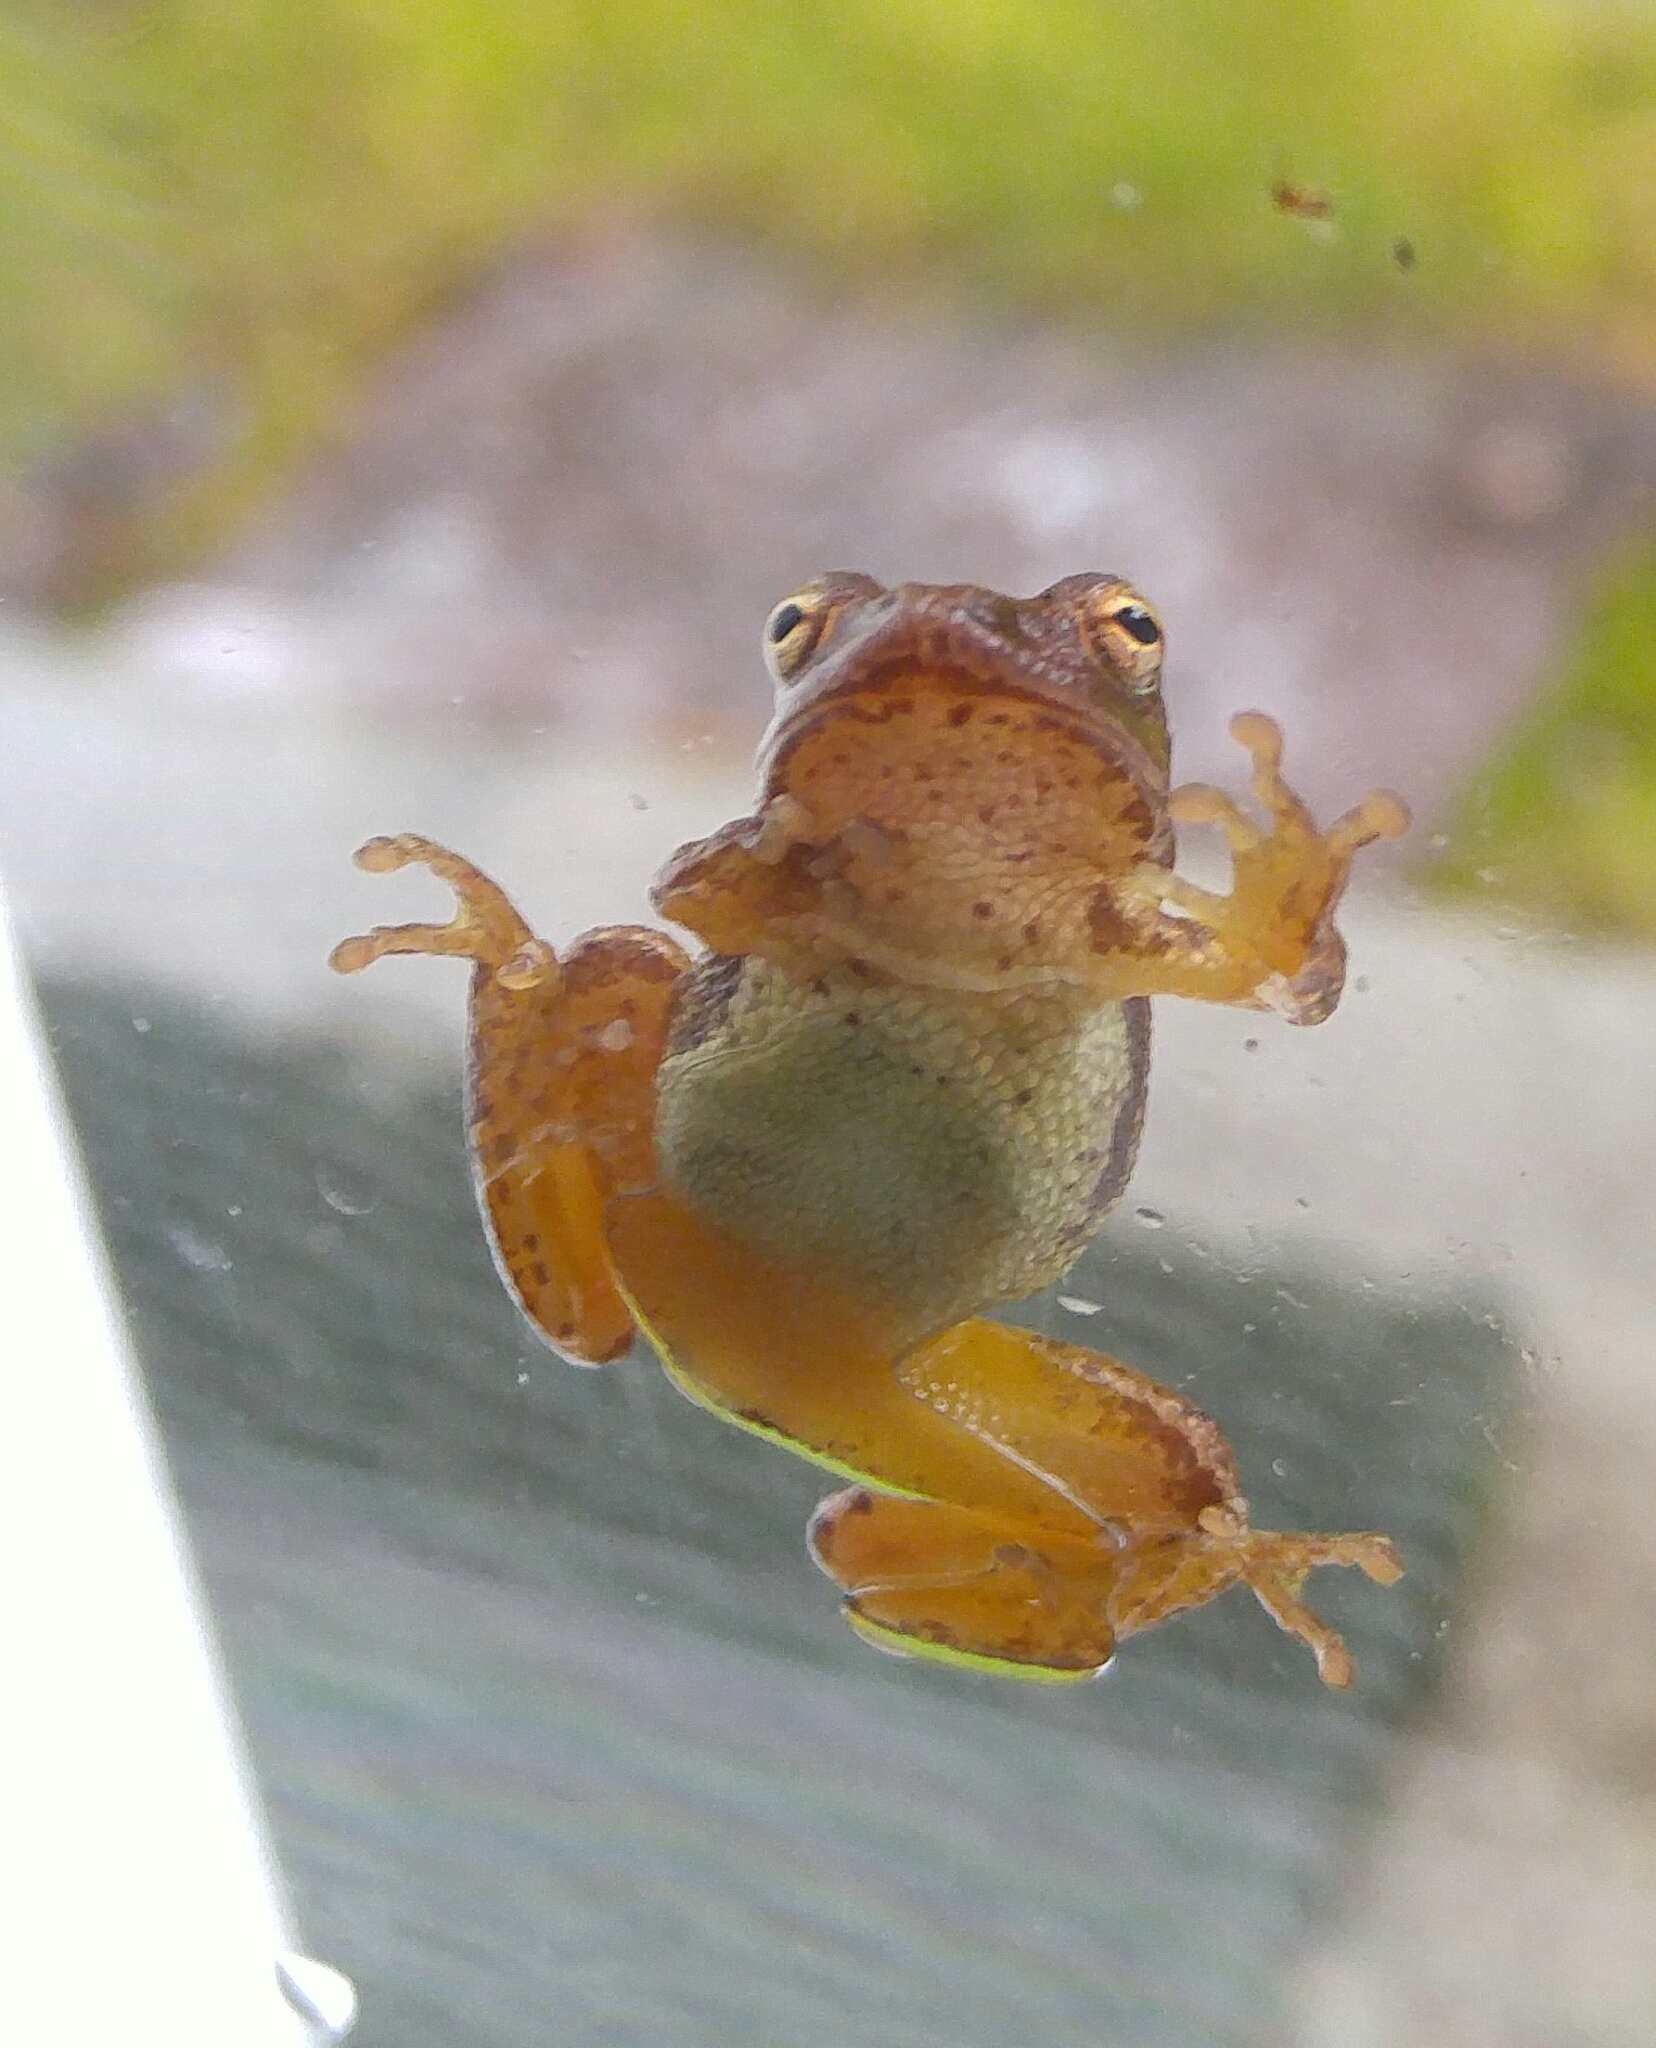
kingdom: Animalia
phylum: Chordata
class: Amphibia
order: Anura
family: Hylidae
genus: Pseudacris
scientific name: Pseudacris crucifer
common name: Spring peeper
